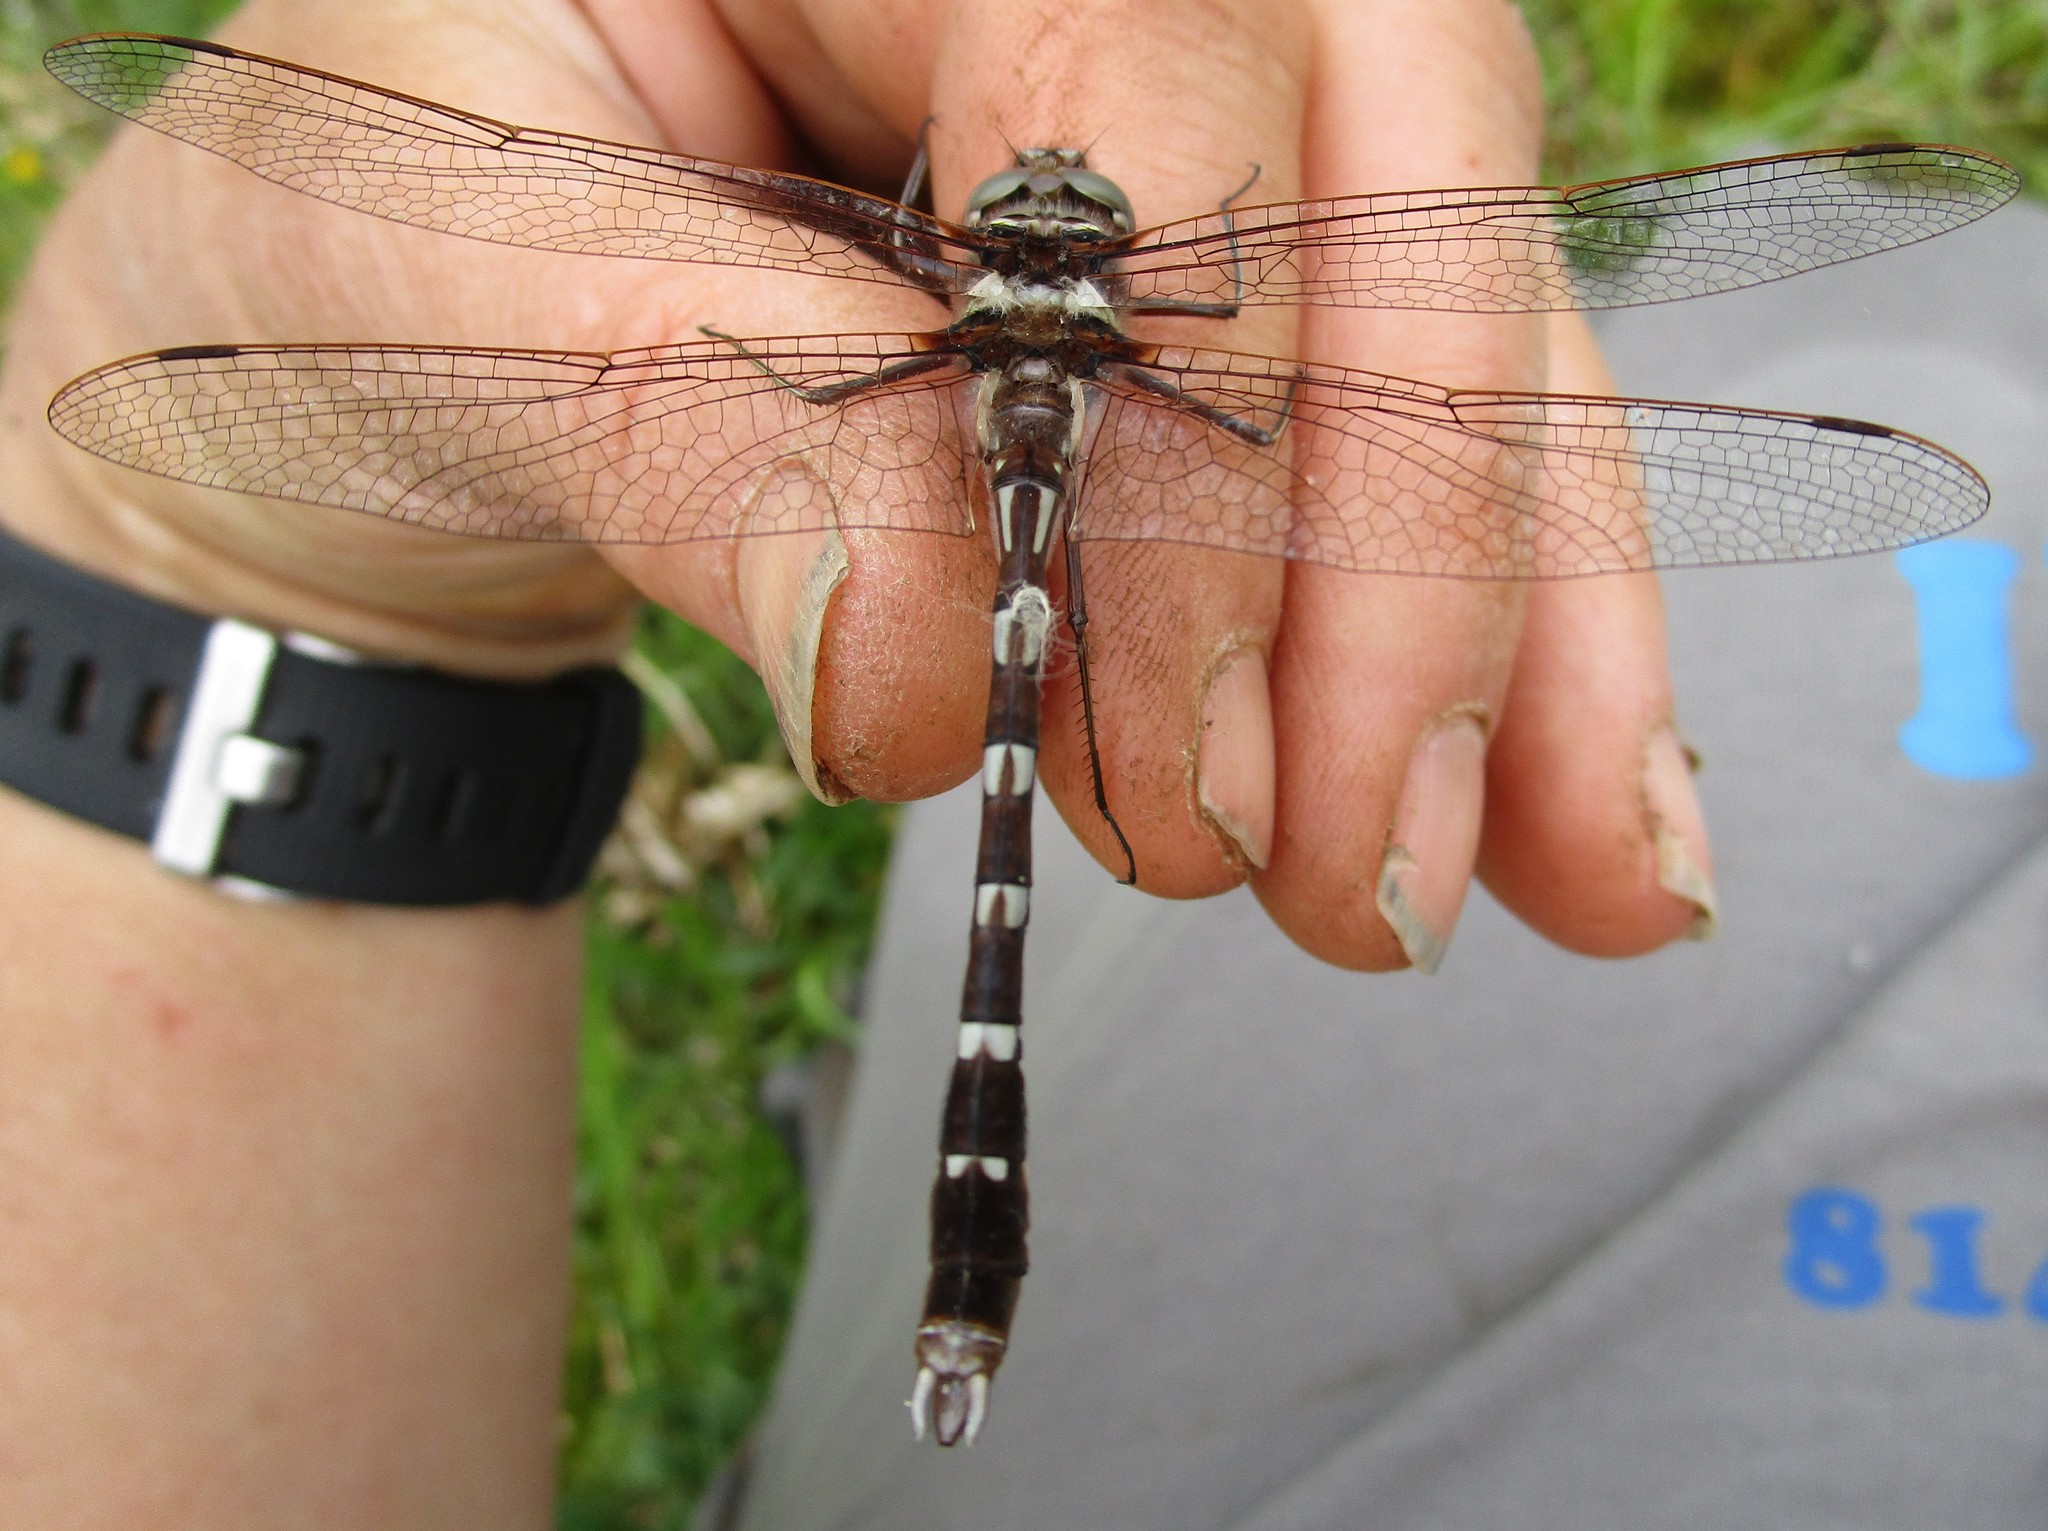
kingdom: Animalia
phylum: Arthropoda
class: Insecta
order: Odonata
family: Macromiidae
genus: Didymops
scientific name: Didymops transversa
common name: Stream cruiser
